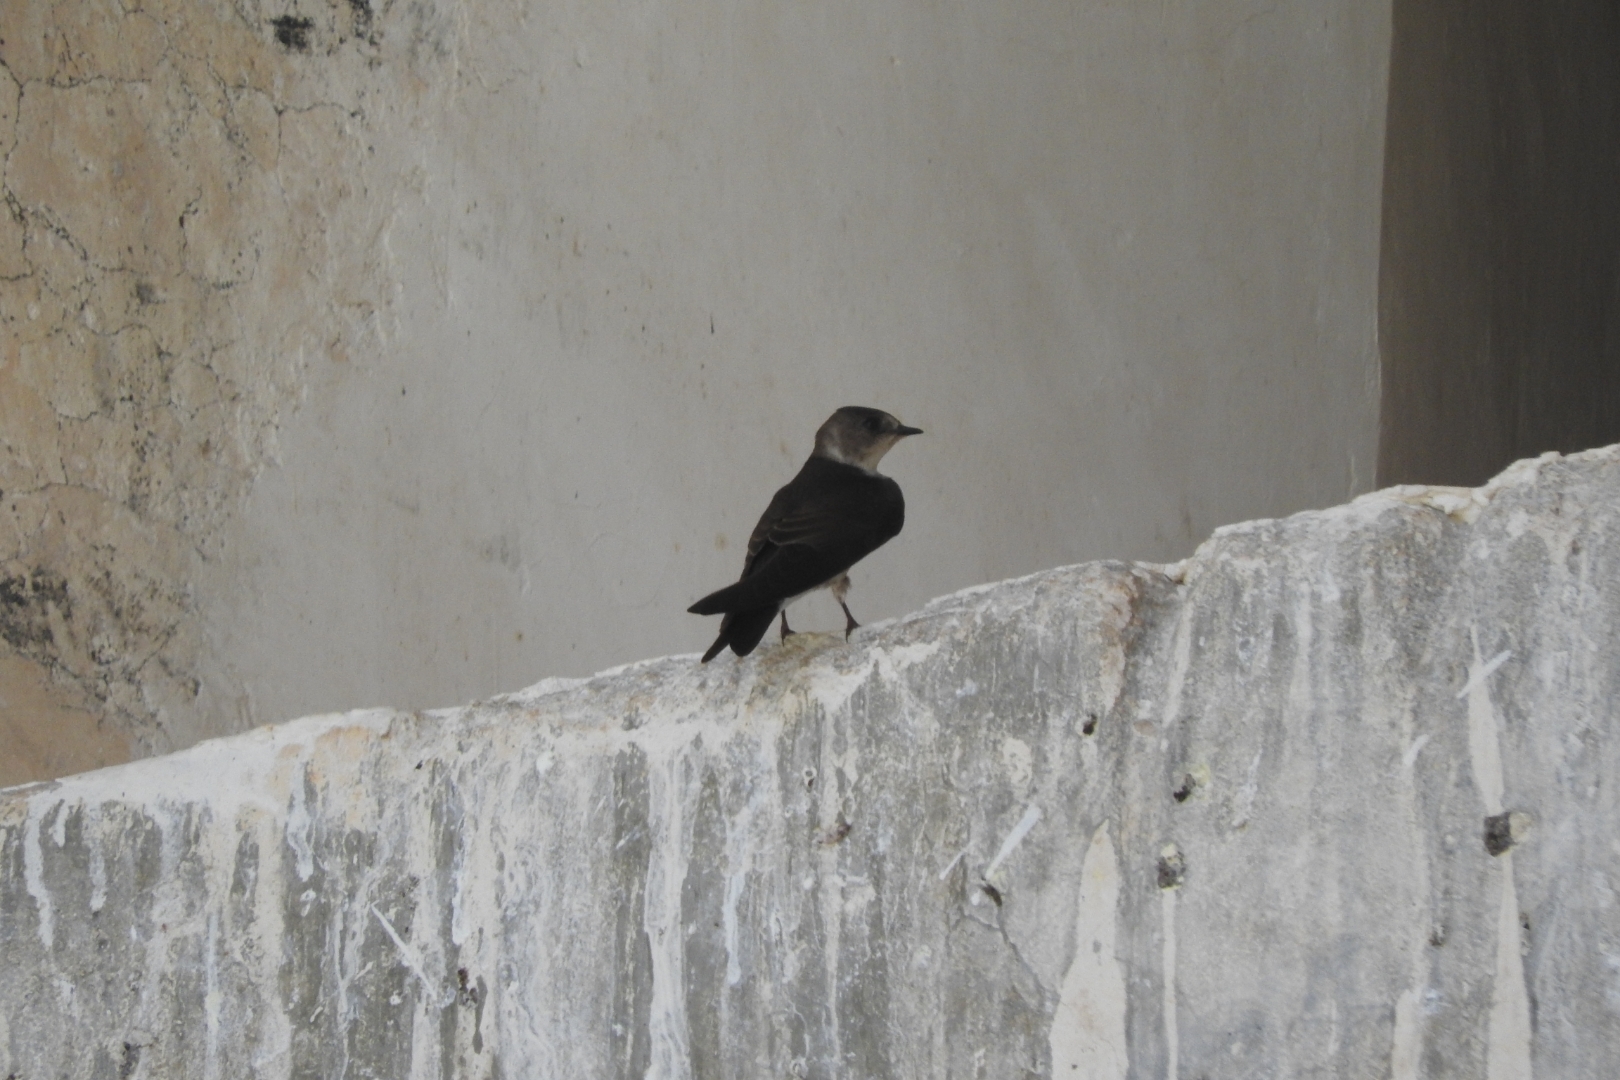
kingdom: Animalia
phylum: Chordata
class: Aves
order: Passeriformes
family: Hirundinidae
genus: Stelgidopteryx
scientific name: Stelgidopteryx serripennis
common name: Northern rough-winged swallow
